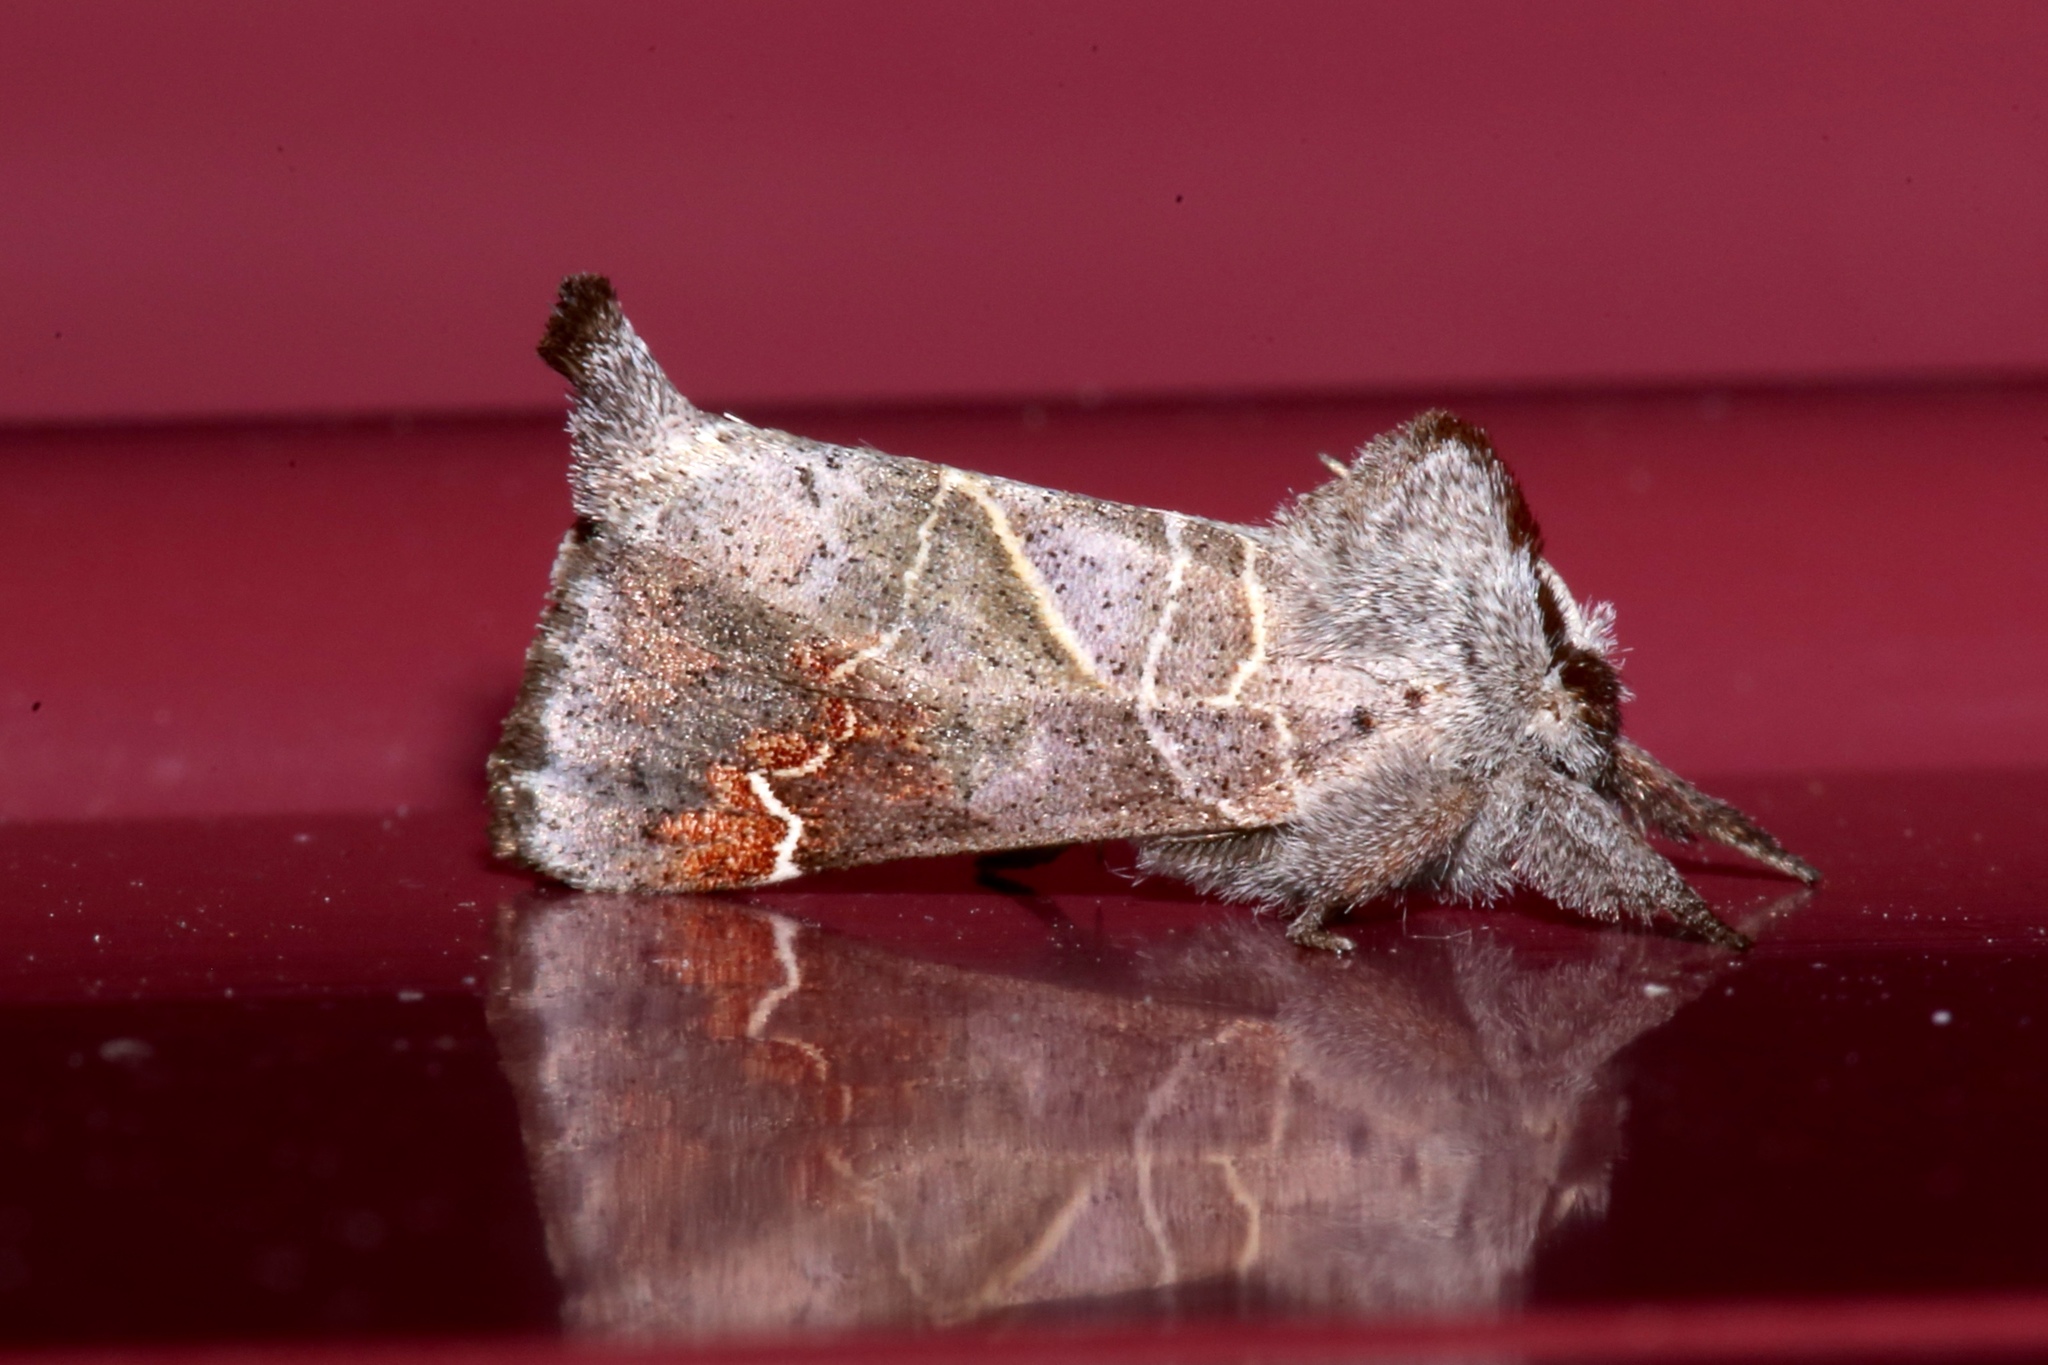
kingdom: Animalia
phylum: Arthropoda
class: Insecta
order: Lepidoptera
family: Notodontidae
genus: Clostera
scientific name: Clostera apicalis
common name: Apical prominent
